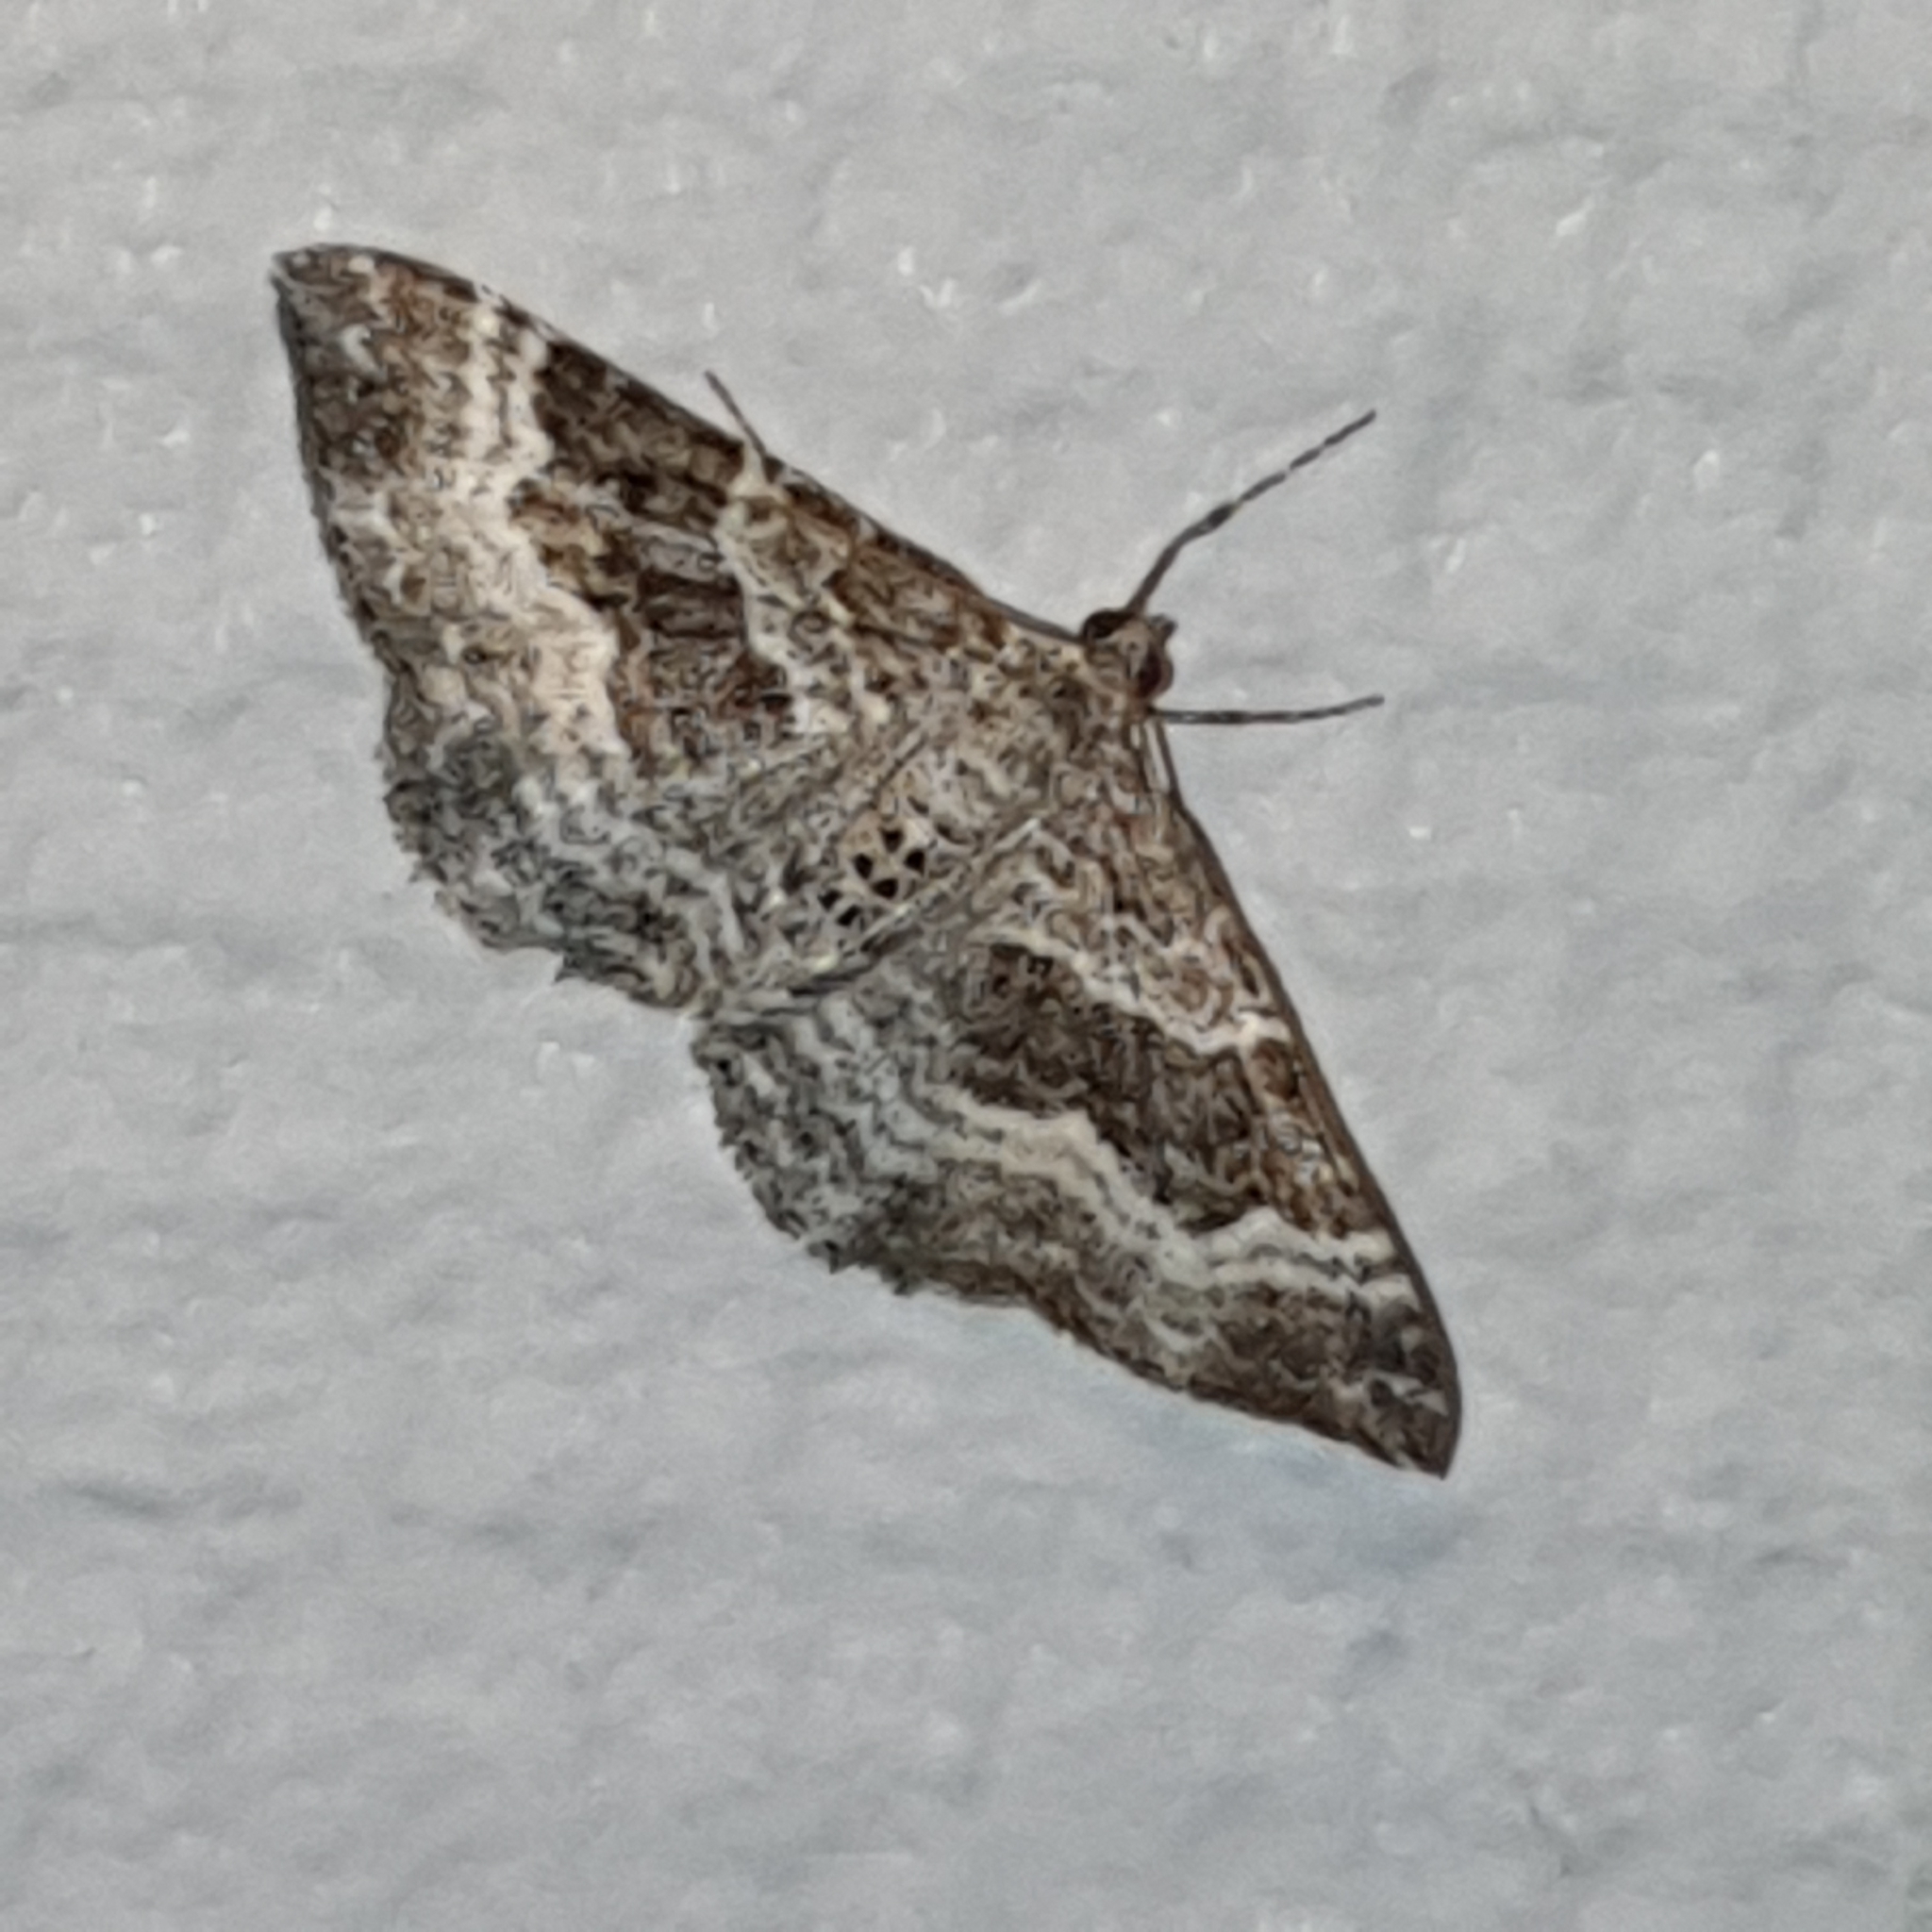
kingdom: Animalia
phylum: Arthropoda
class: Insecta
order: Lepidoptera
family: Geometridae
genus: Epirrhoe
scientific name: Epirrhoe alternata
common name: Common carpet
